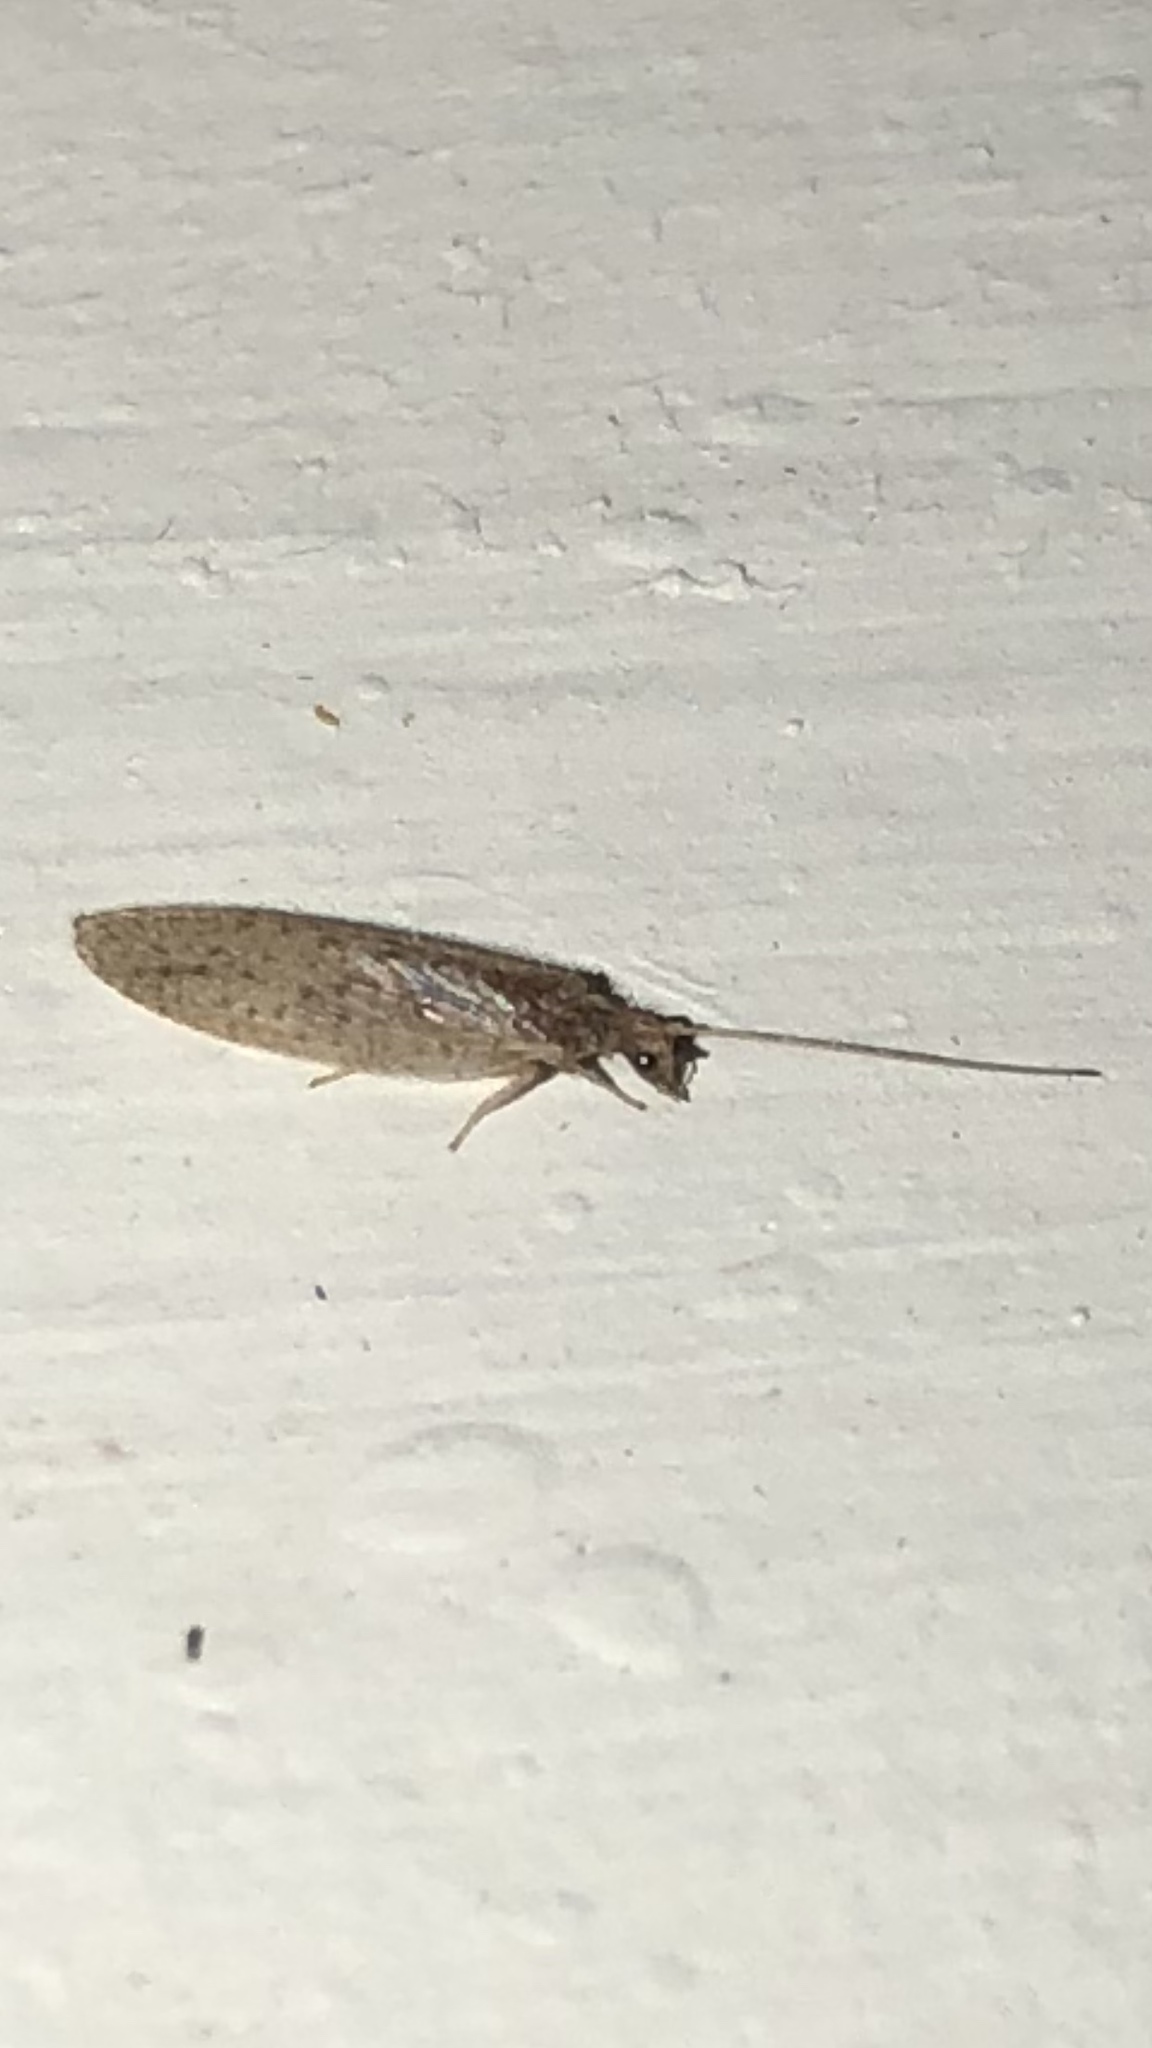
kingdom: Animalia
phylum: Arthropoda
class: Insecta
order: Neuroptera
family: Hemerobiidae
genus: Micromus
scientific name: Micromus subanticus
